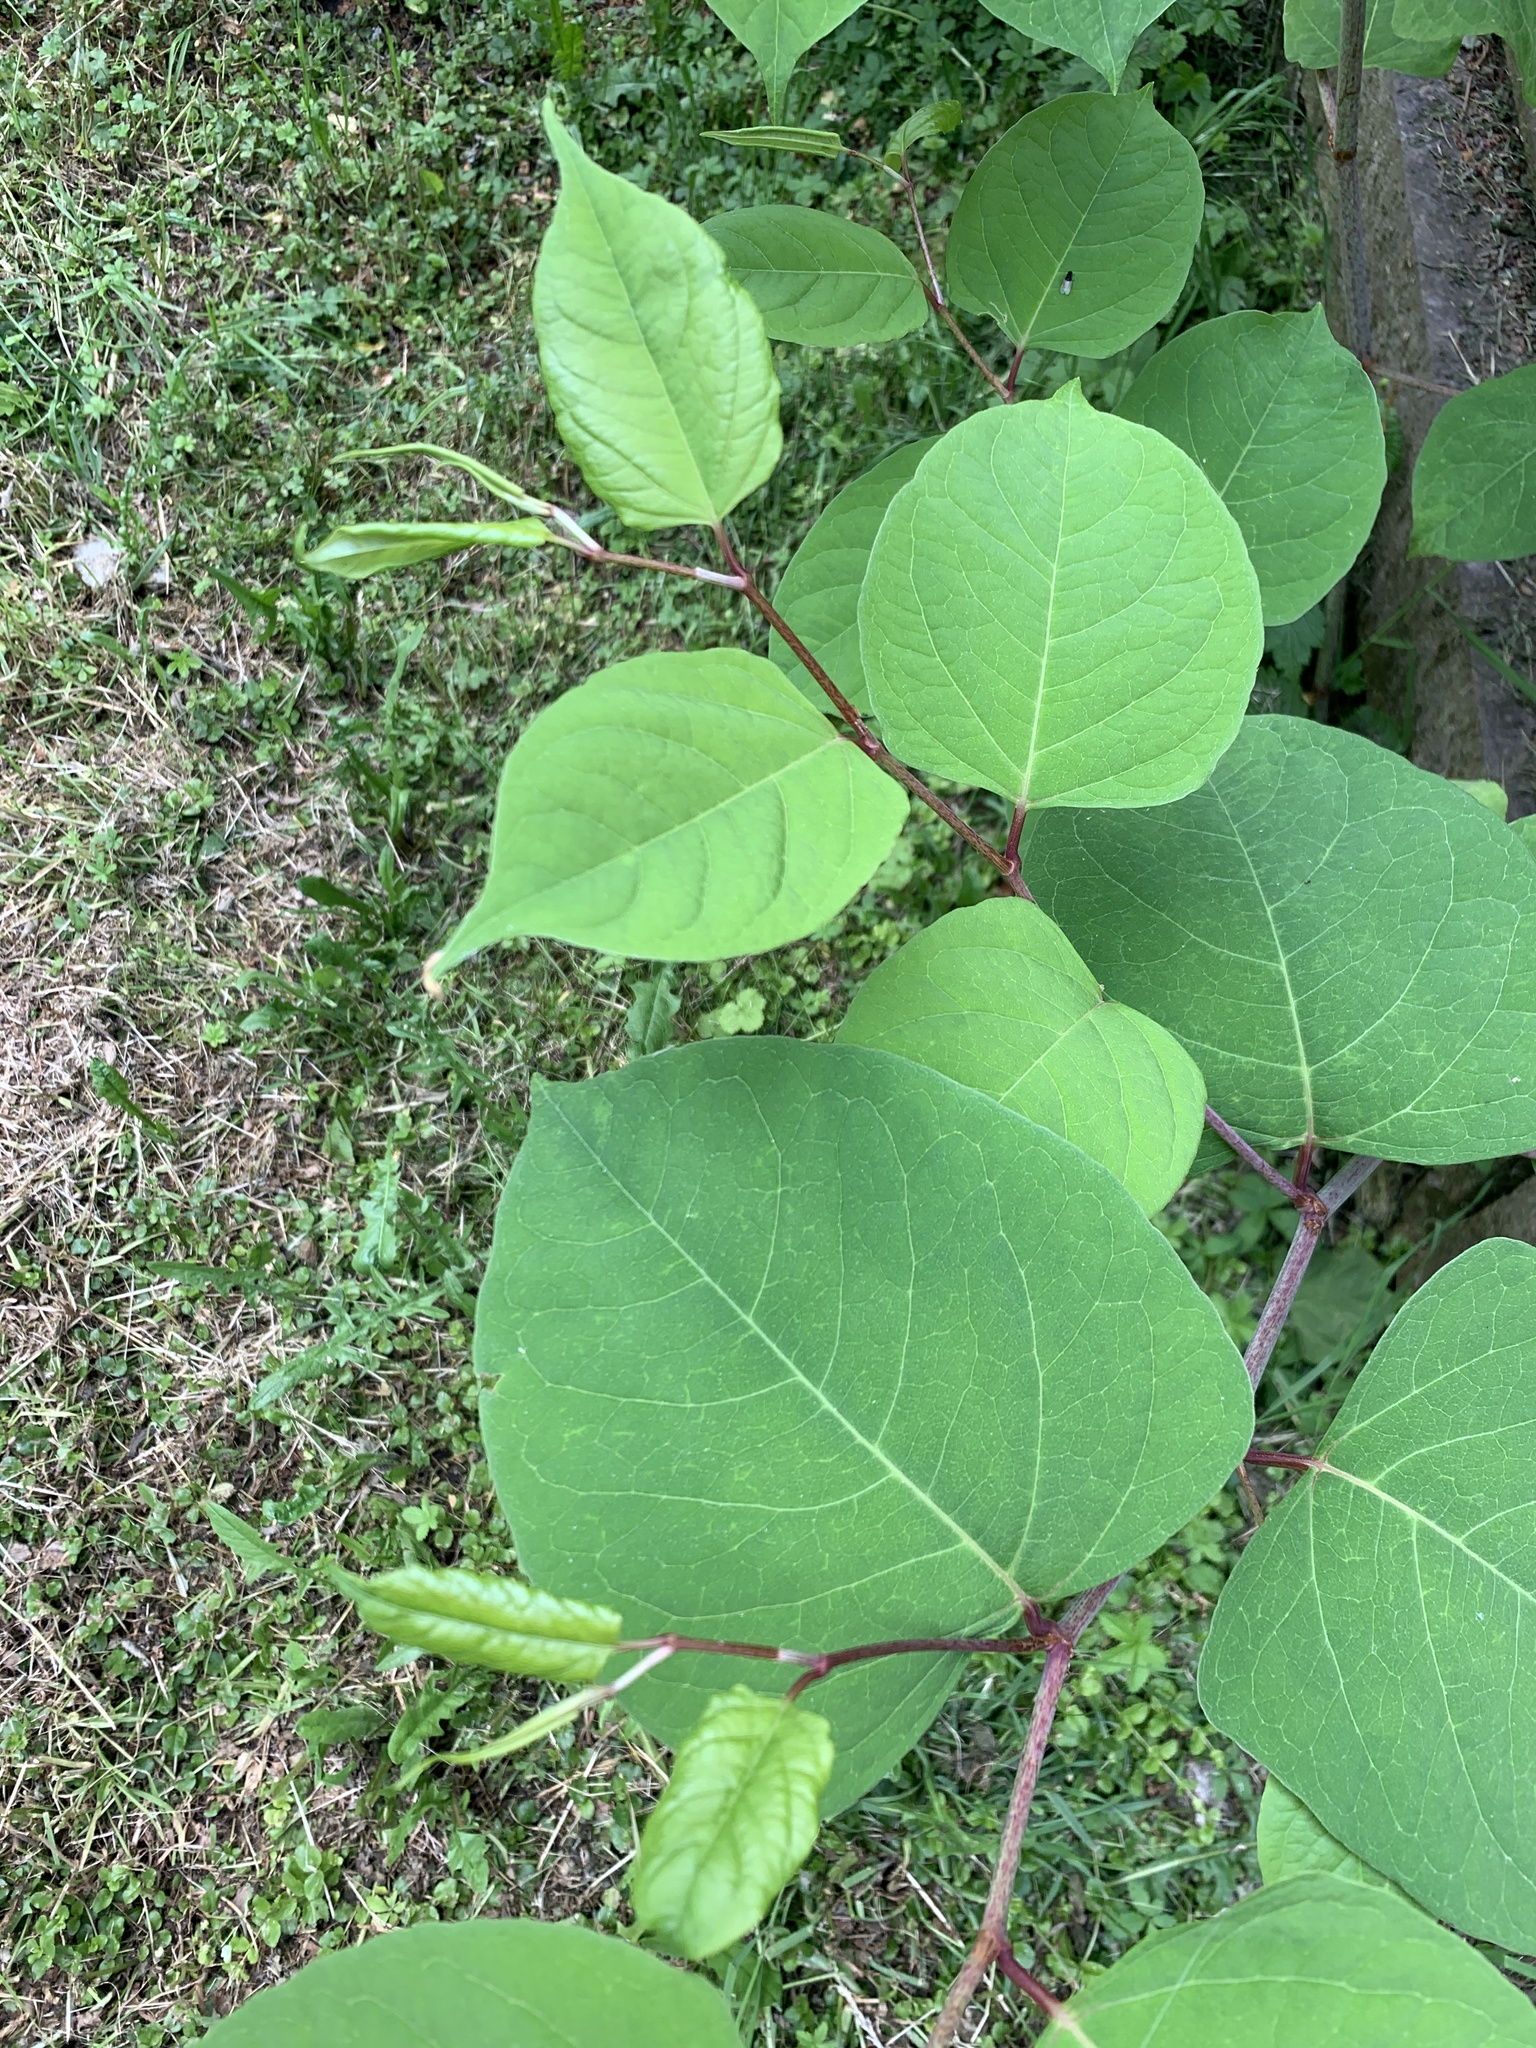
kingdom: Plantae
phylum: Tracheophyta
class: Magnoliopsida
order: Caryophyllales
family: Polygonaceae
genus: Reynoutria
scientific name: Reynoutria japonica
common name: Japanese knotweed
